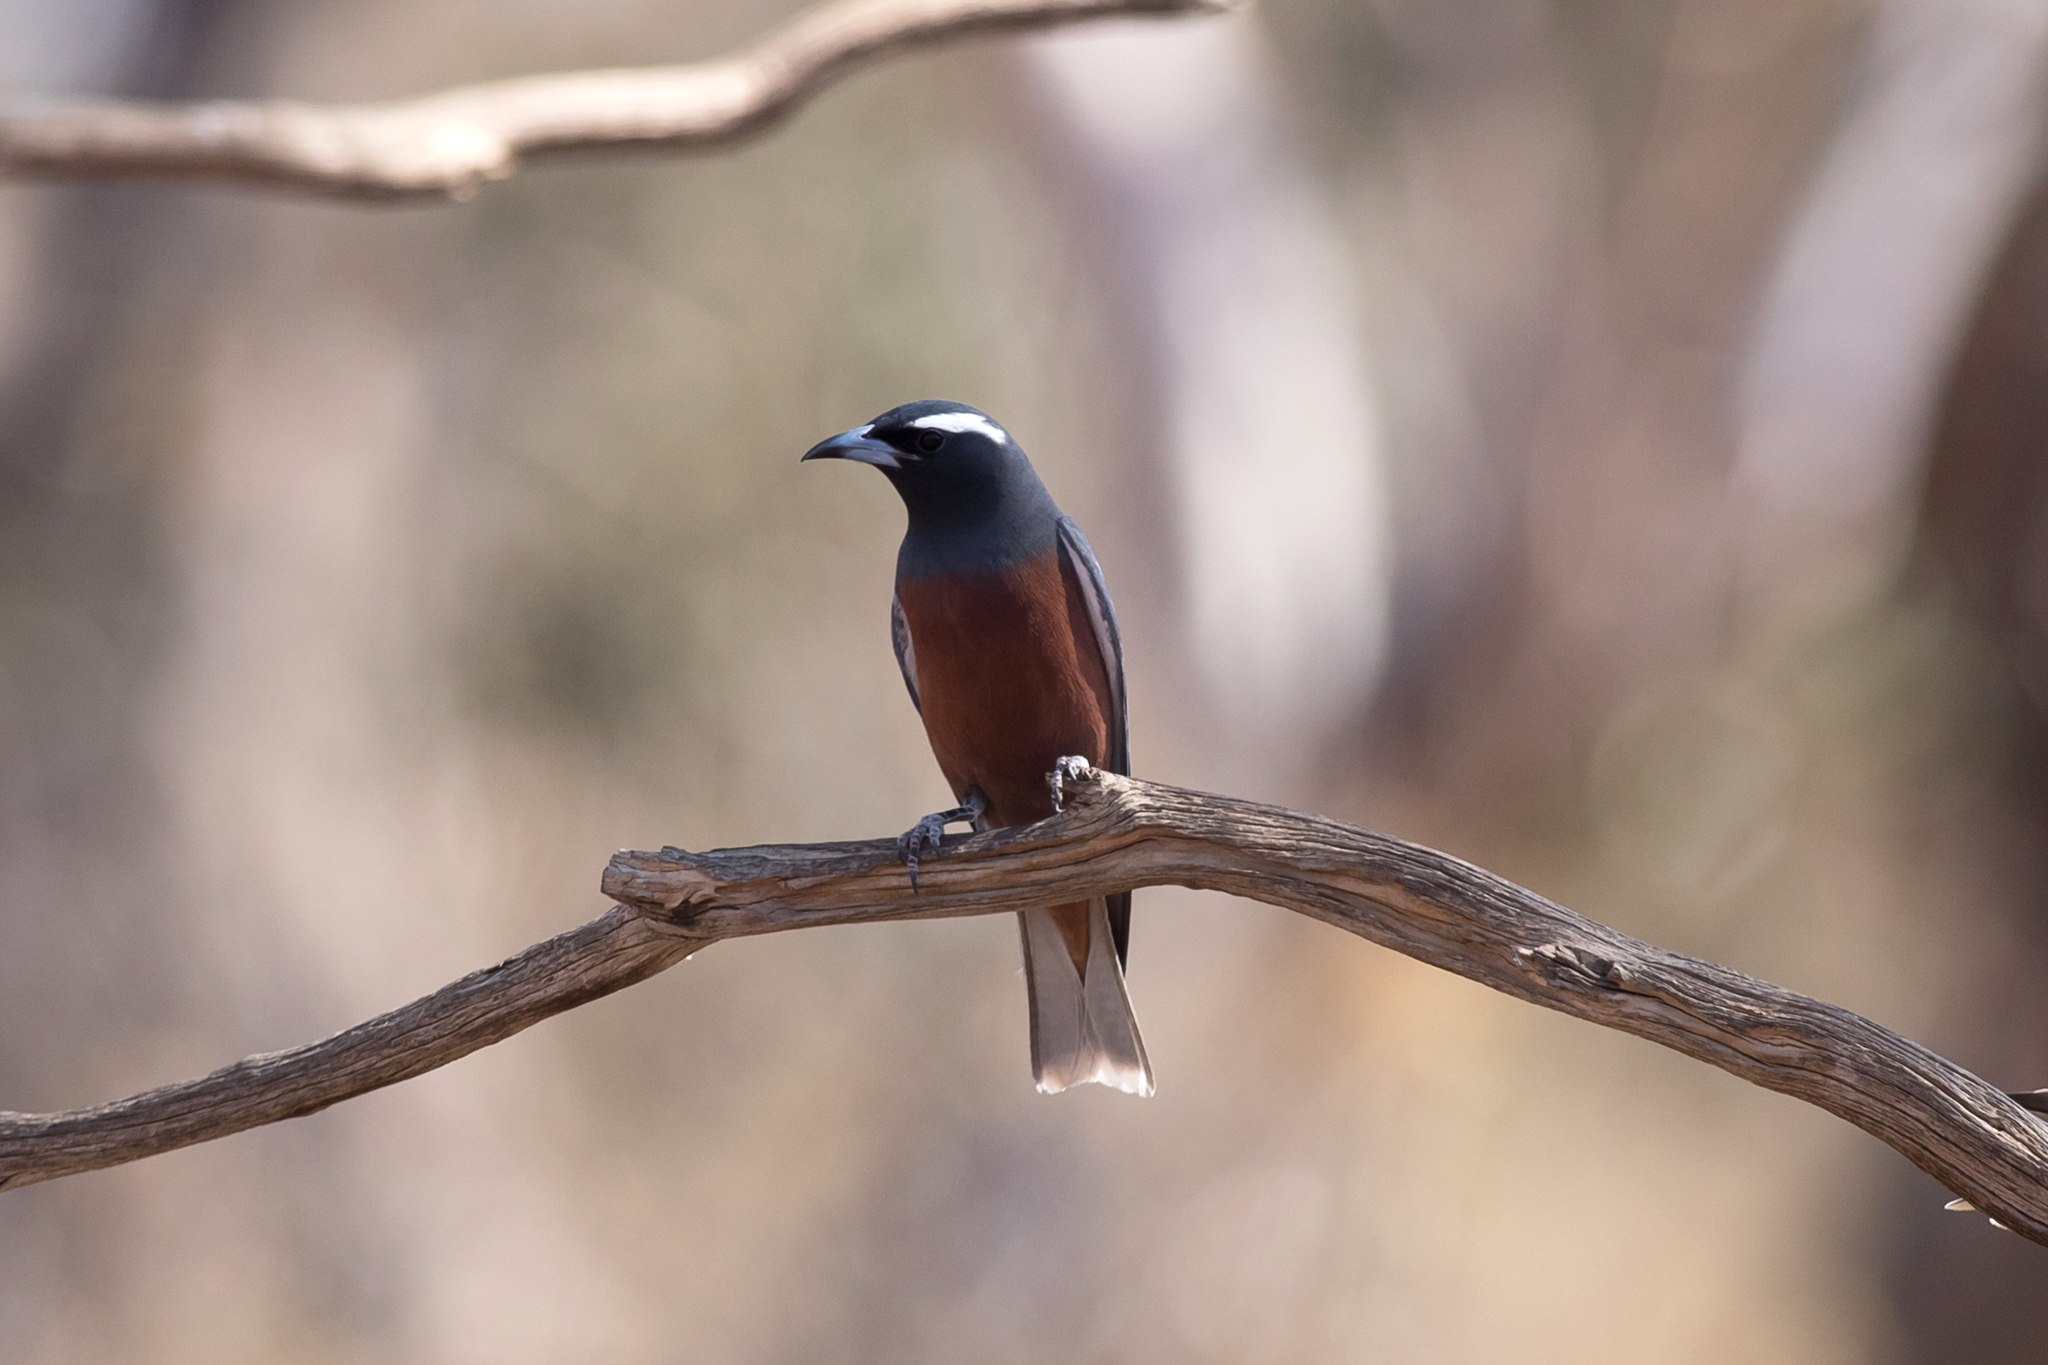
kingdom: Animalia
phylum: Chordata
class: Aves
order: Passeriformes
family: Artamidae
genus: Artamus
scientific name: Artamus superciliosus
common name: White-browed woodswallow
